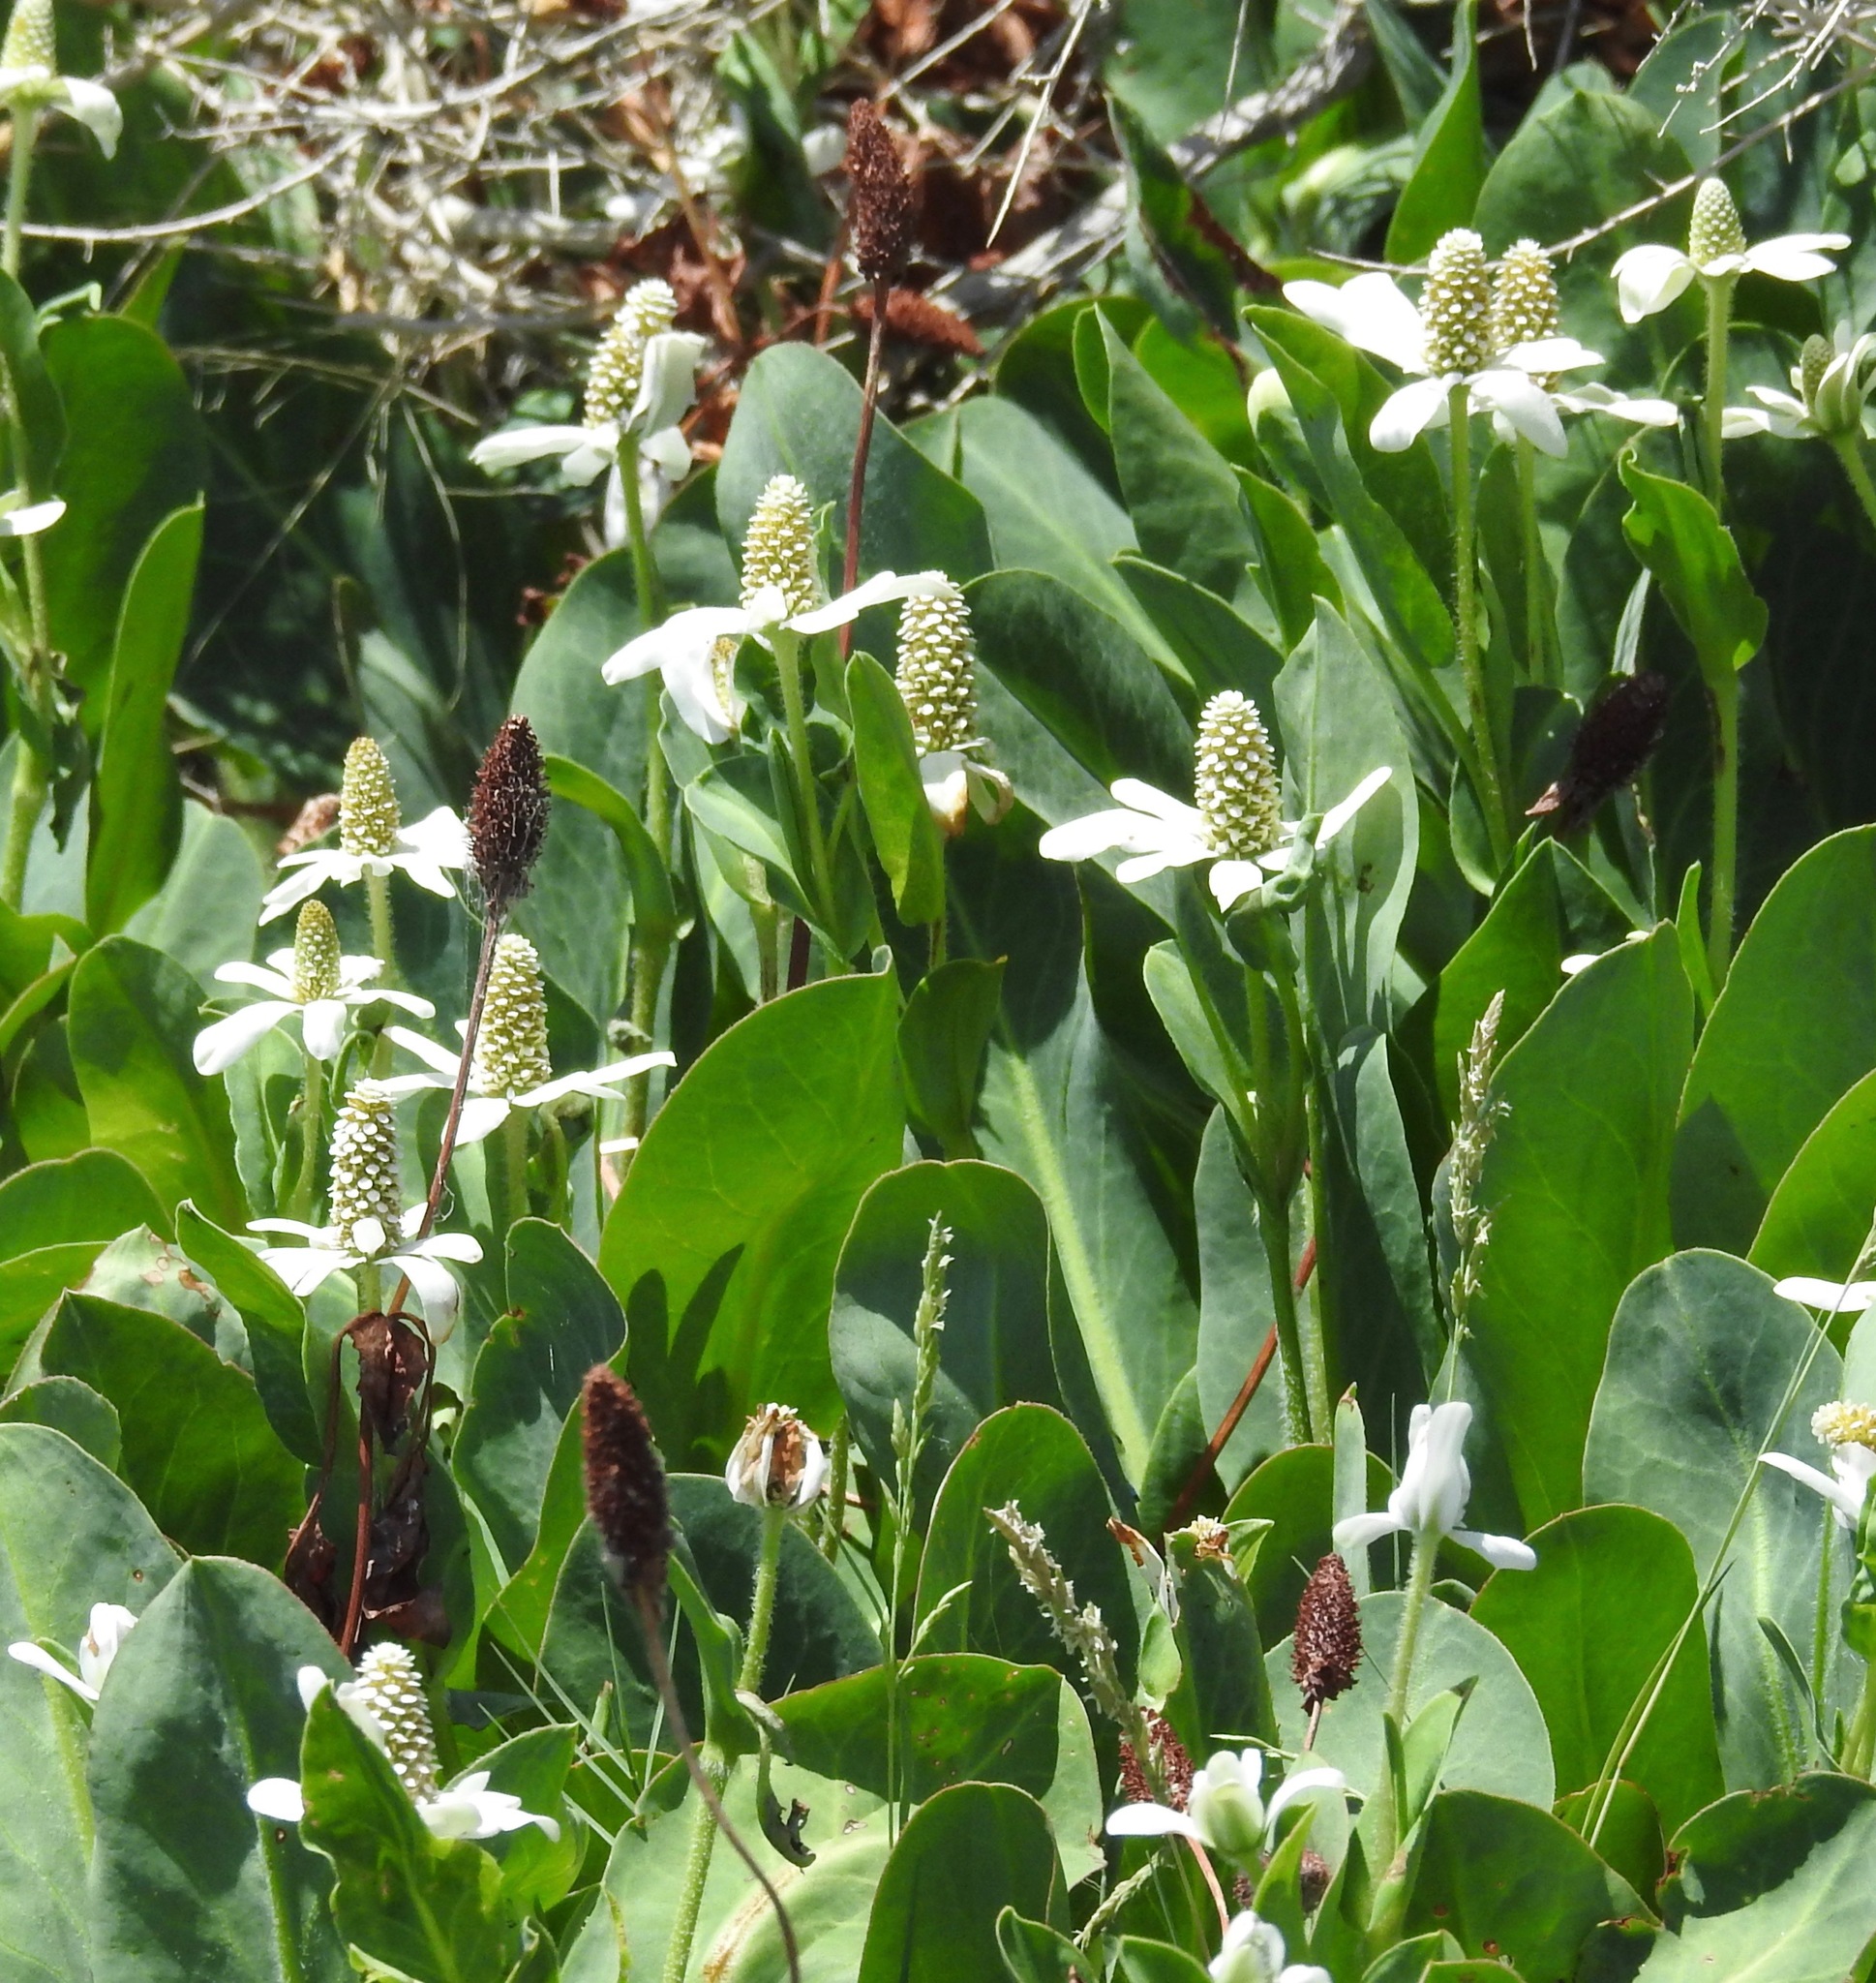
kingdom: Plantae
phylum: Tracheophyta
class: Magnoliopsida
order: Piperales
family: Saururaceae
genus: Anemopsis
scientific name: Anemopsis californica
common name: Apache-beads
